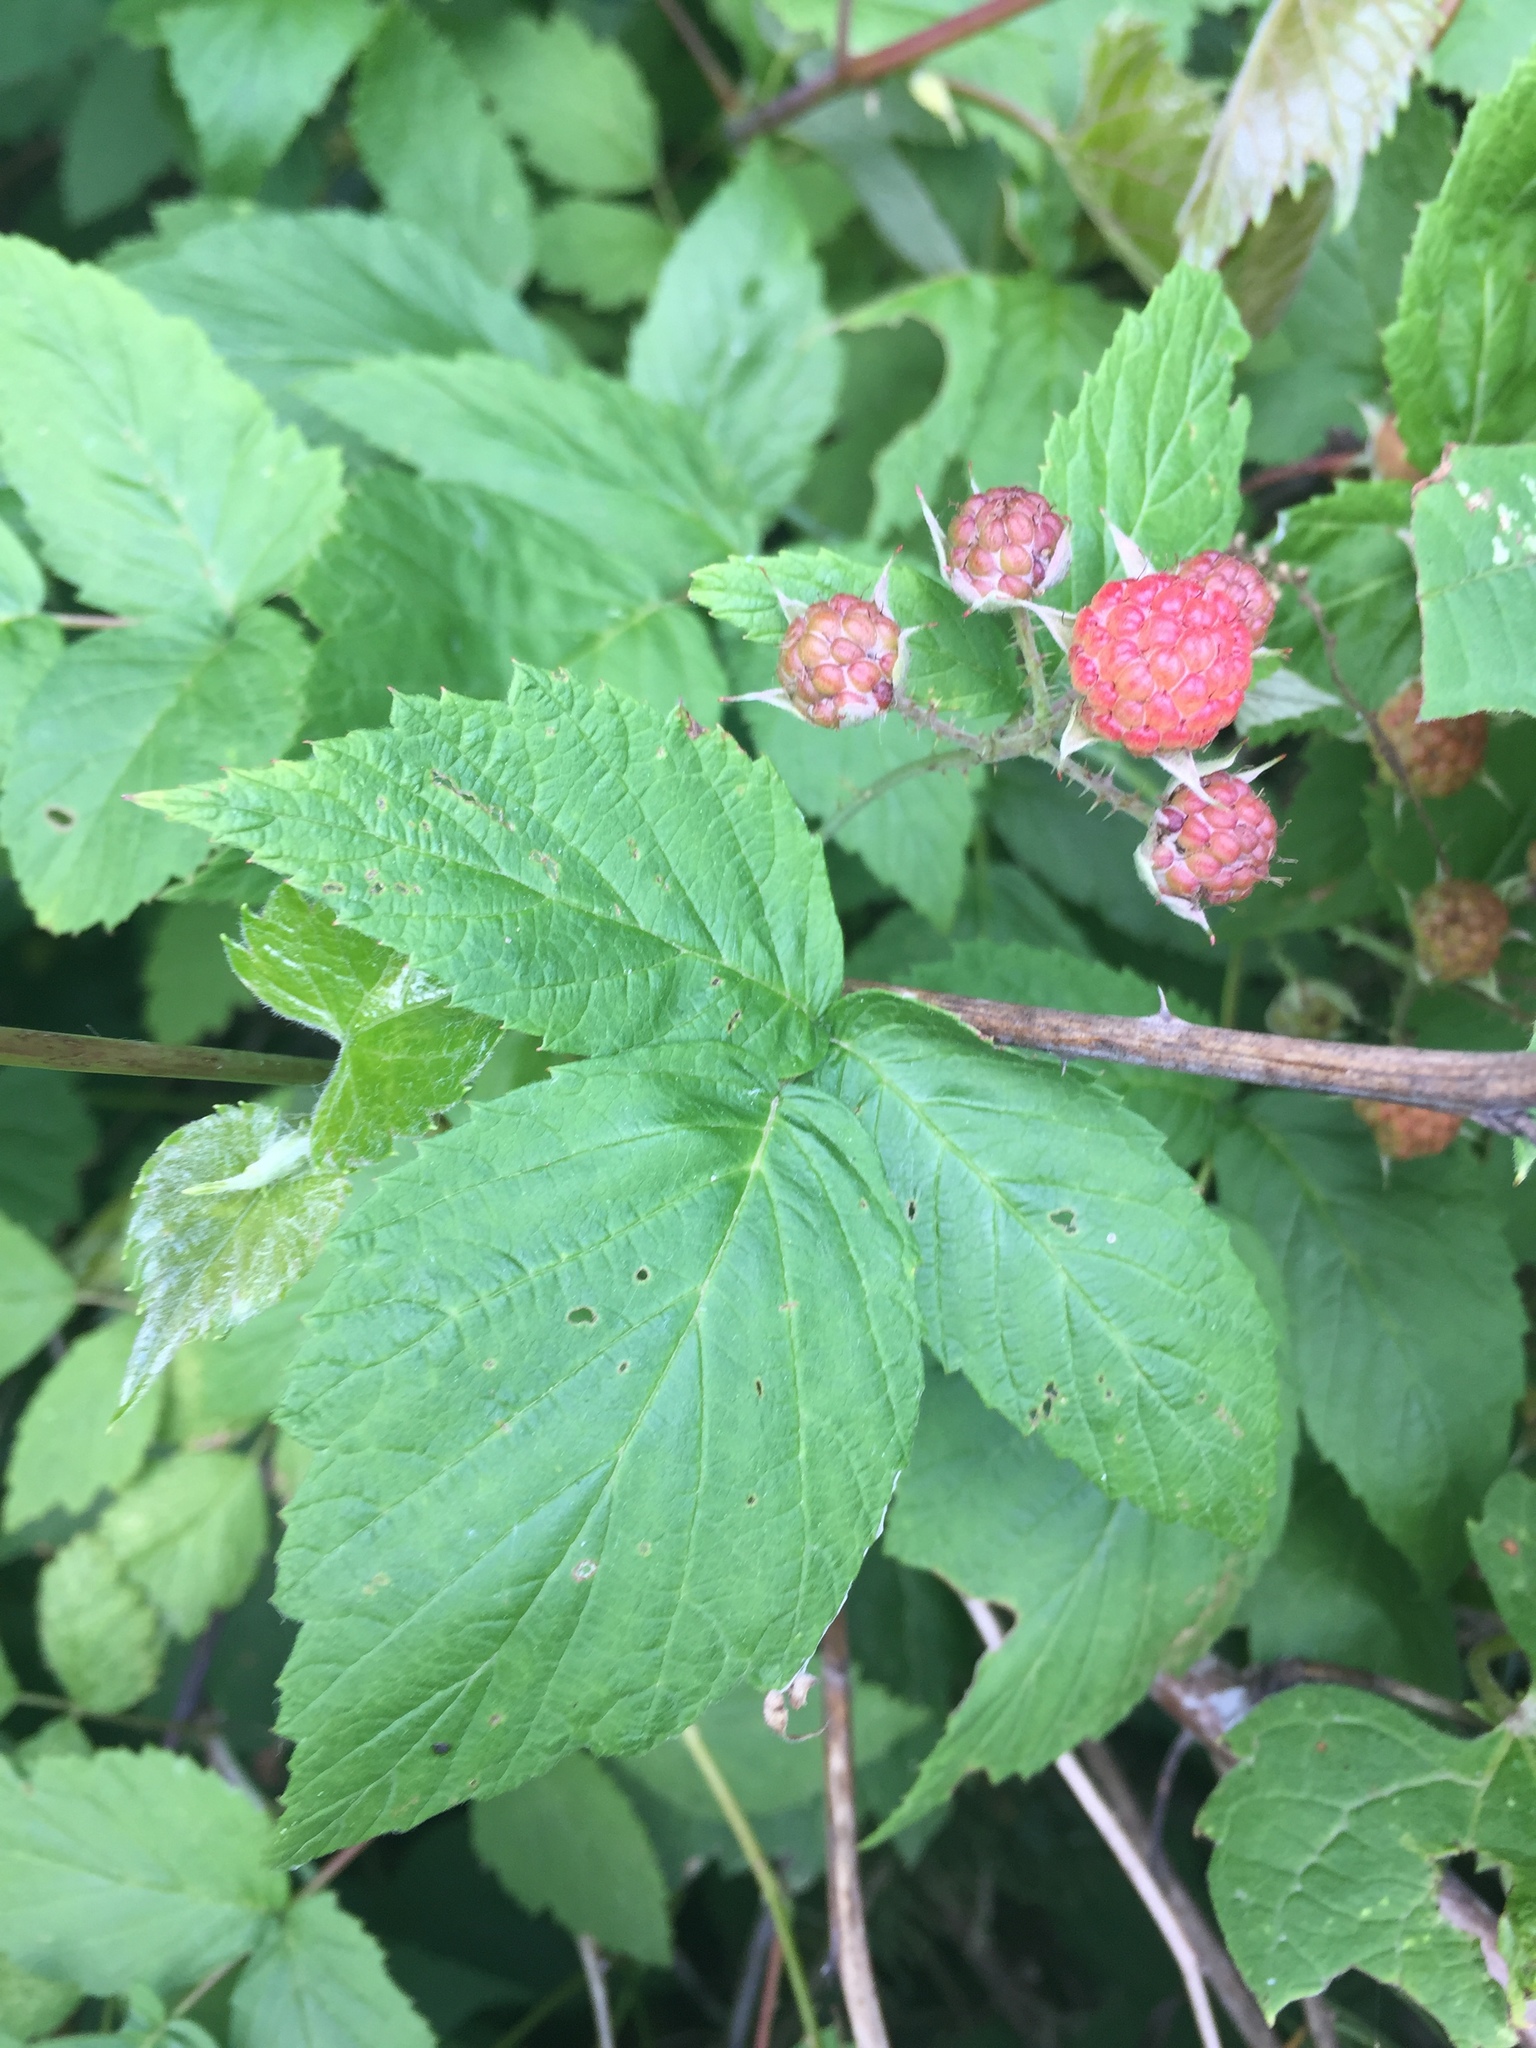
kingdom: Plantae
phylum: Tracheophyta
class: Magnoliopsida
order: Rosales
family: Rosaceae
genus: Rubus
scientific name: Rubus occidentalis
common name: Black raspberry
